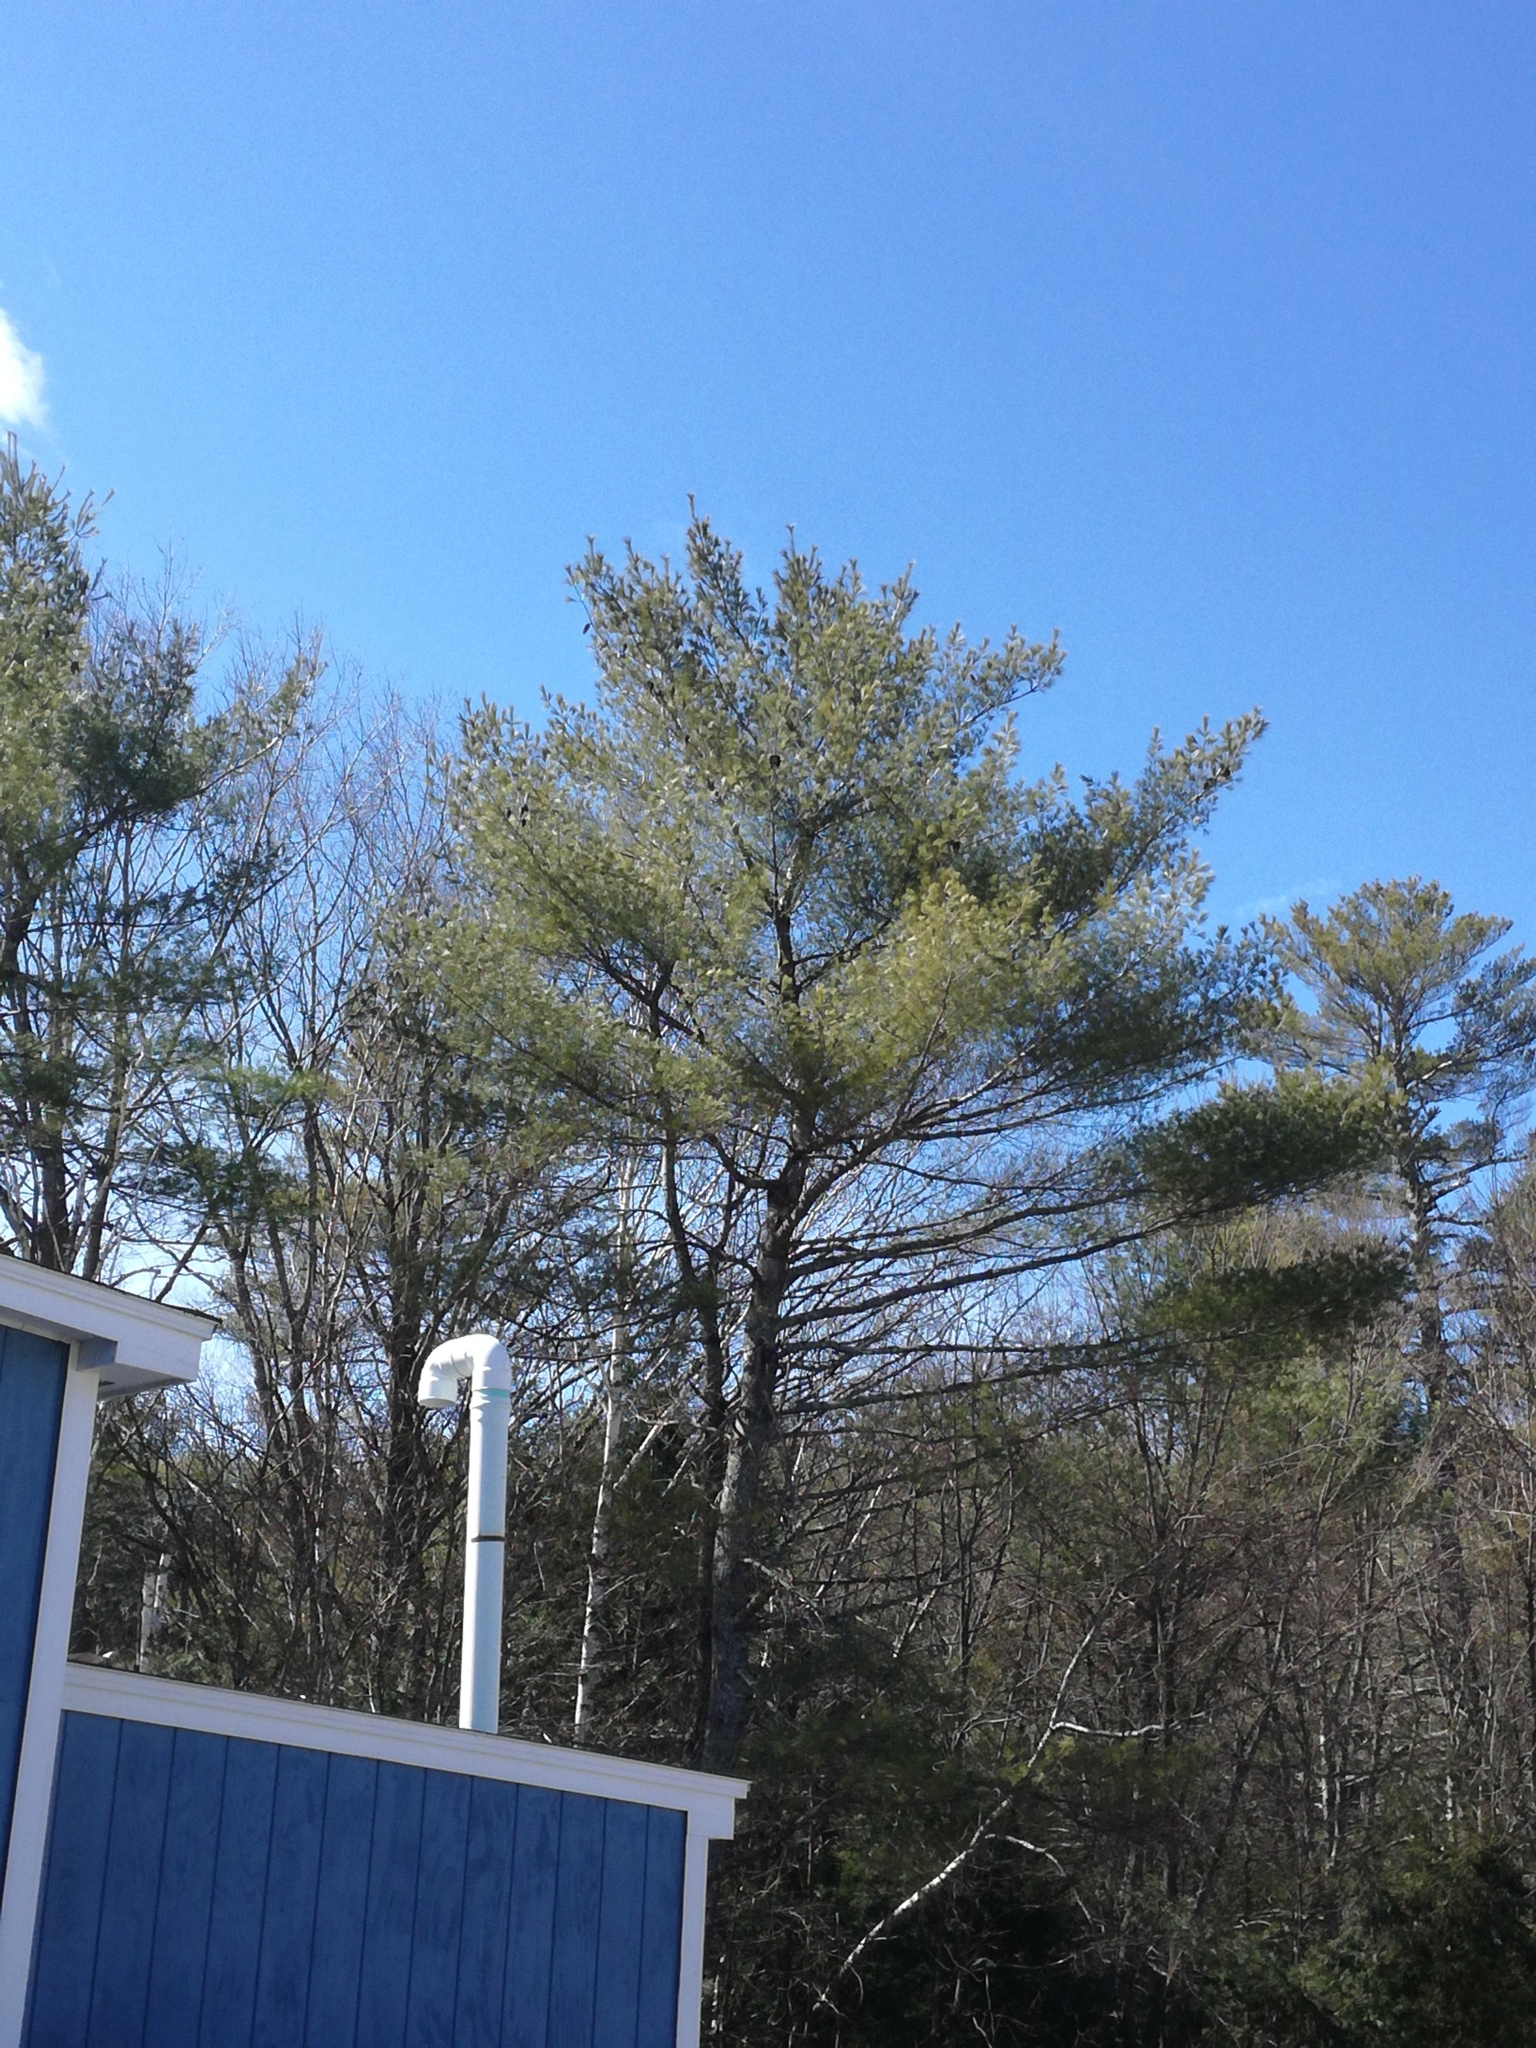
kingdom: Plantae
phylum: Tracheophyta
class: Pinopsida
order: Pinales
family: Pinaceae
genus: Pinus
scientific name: Pinus strobus
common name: Weymouth pine
